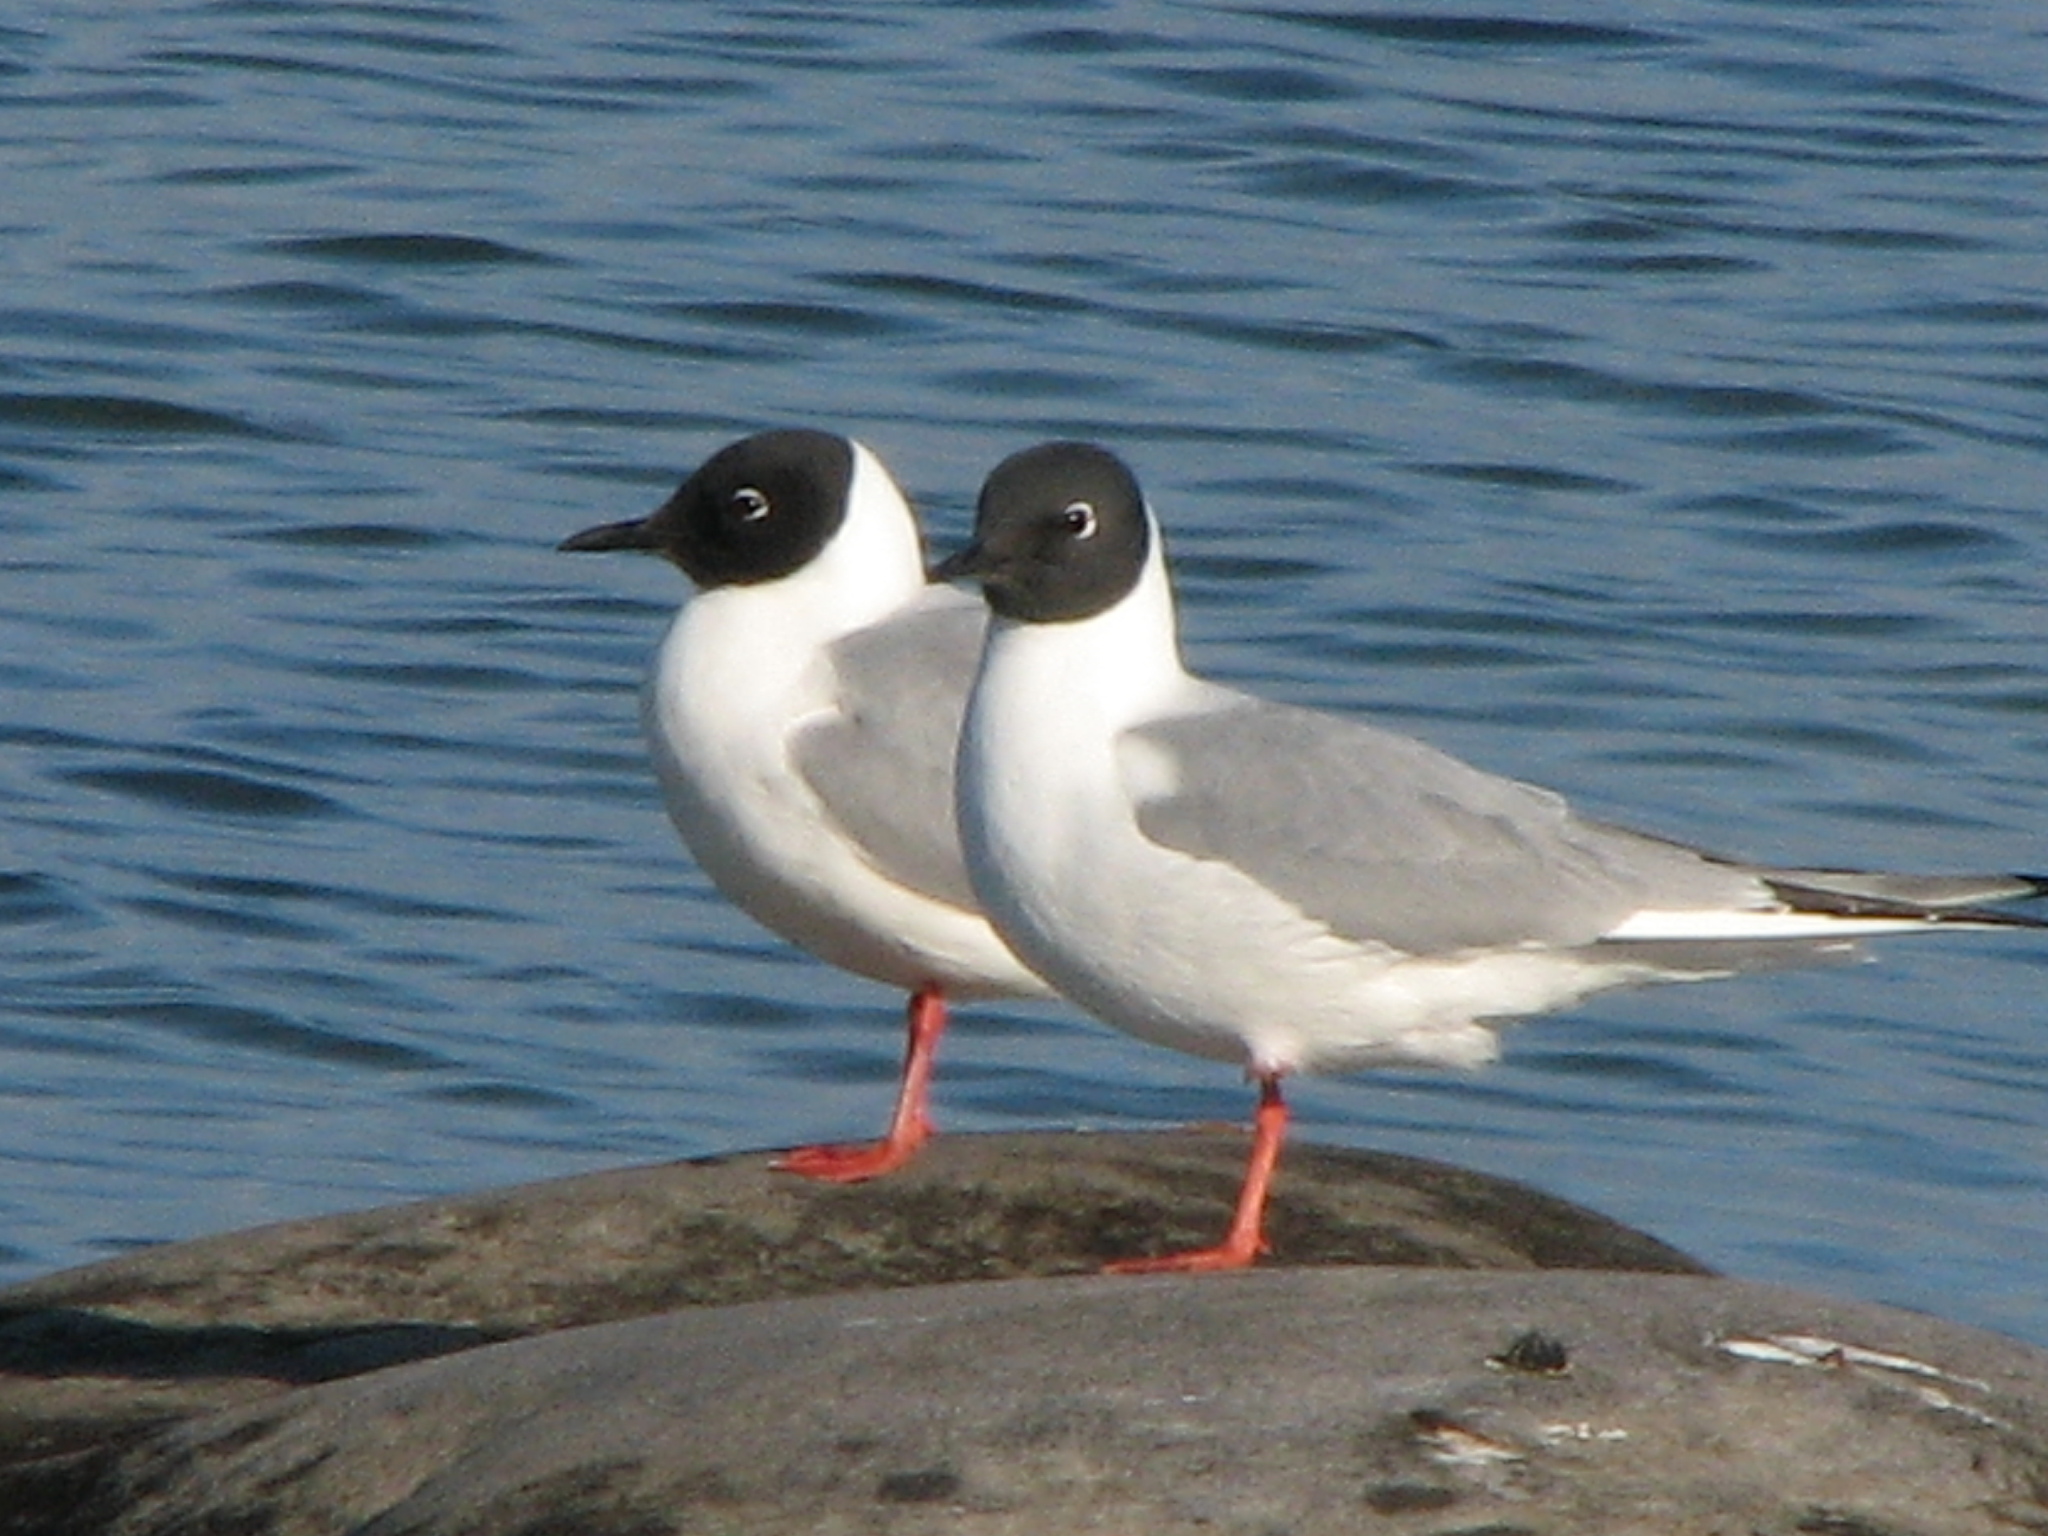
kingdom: Animalia
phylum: Chordata
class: Aves
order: Charadriiformes
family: Laridae
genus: Chroicocephalus
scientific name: Chroicocephalus philadelphia
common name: Bonaparte's gull
